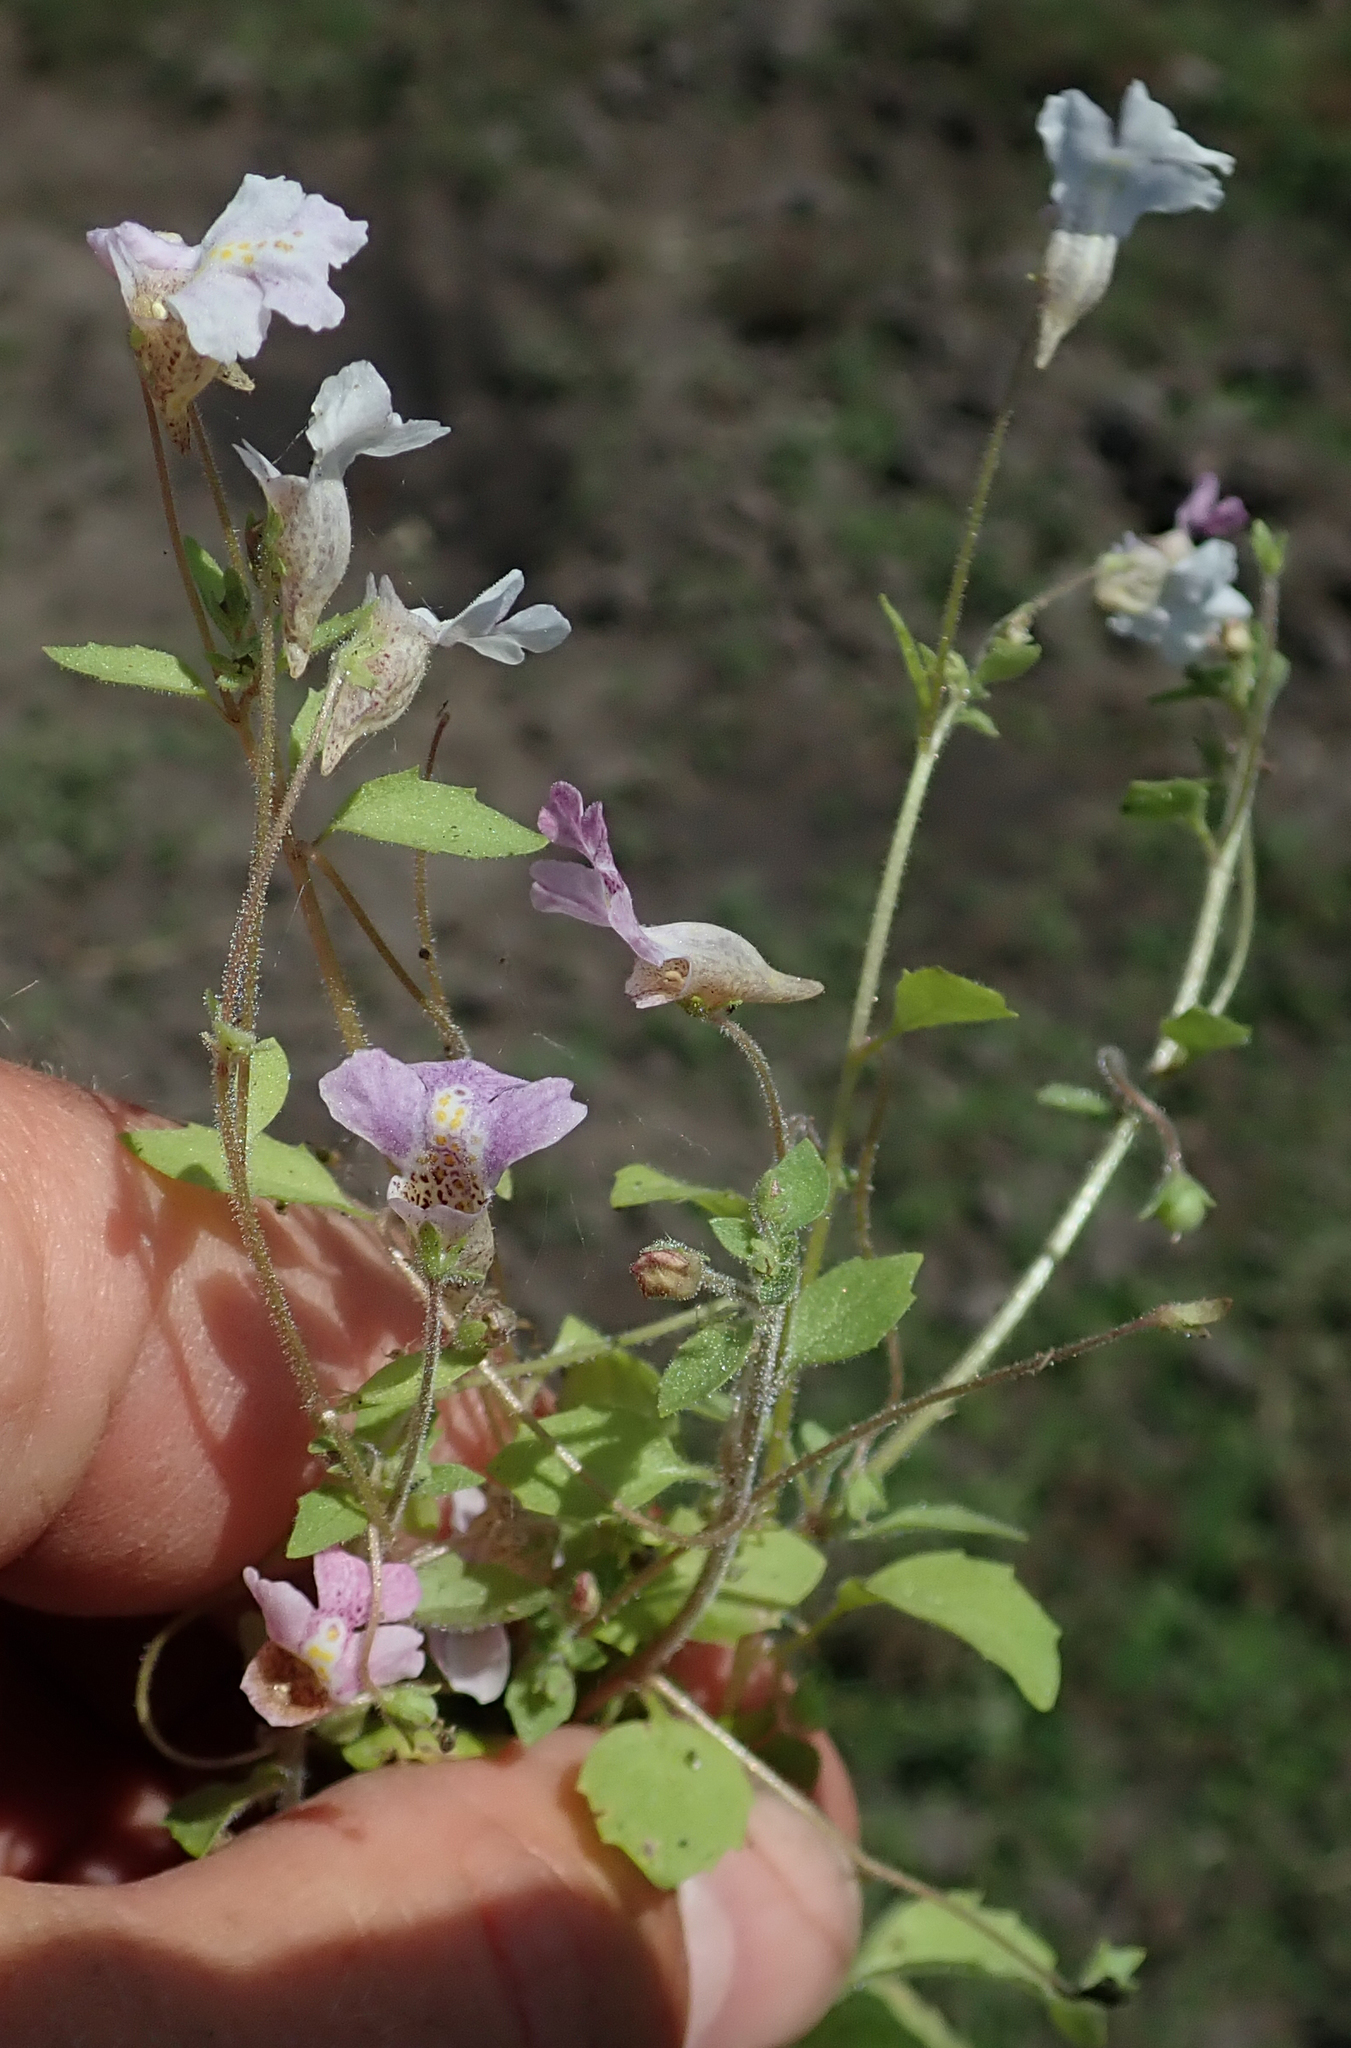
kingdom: Plantae
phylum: Tracheophyta
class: Magnoliopsida
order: Lamiales
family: Scrophulariaceae
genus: Diclis
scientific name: Diclis petiolaris
